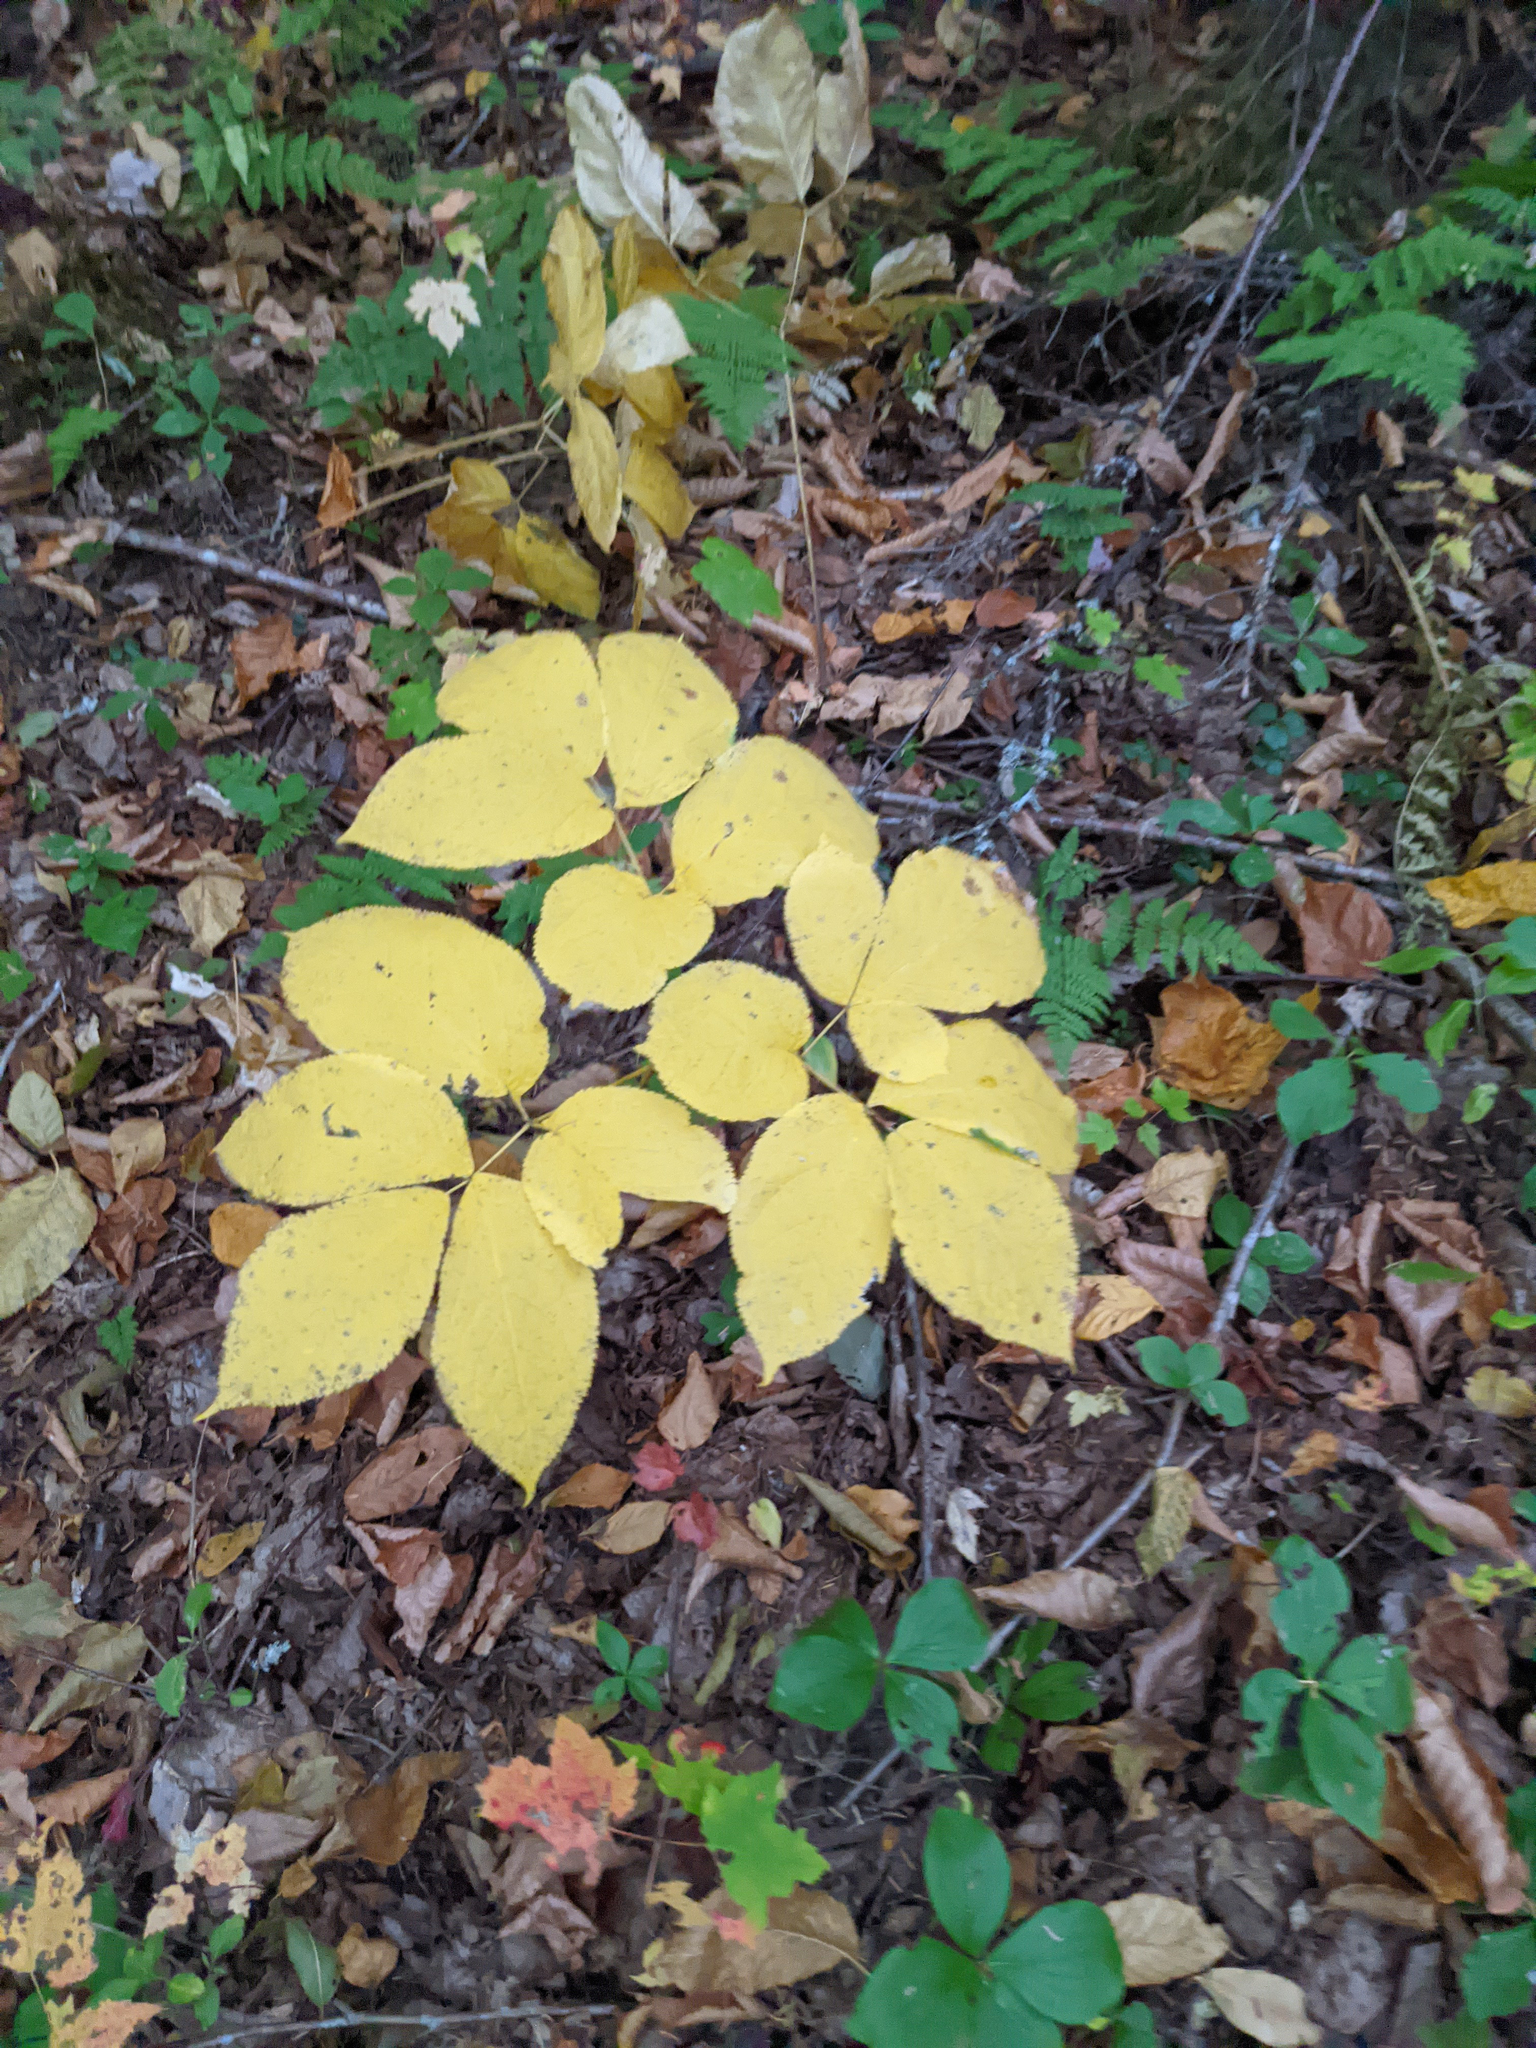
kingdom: Plantae
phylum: Tracheophyta
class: Magnoliopsida
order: Apiales
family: Araliaceae
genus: Aralia
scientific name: Aralia nudicaulis
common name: Wild sarsaparilla
